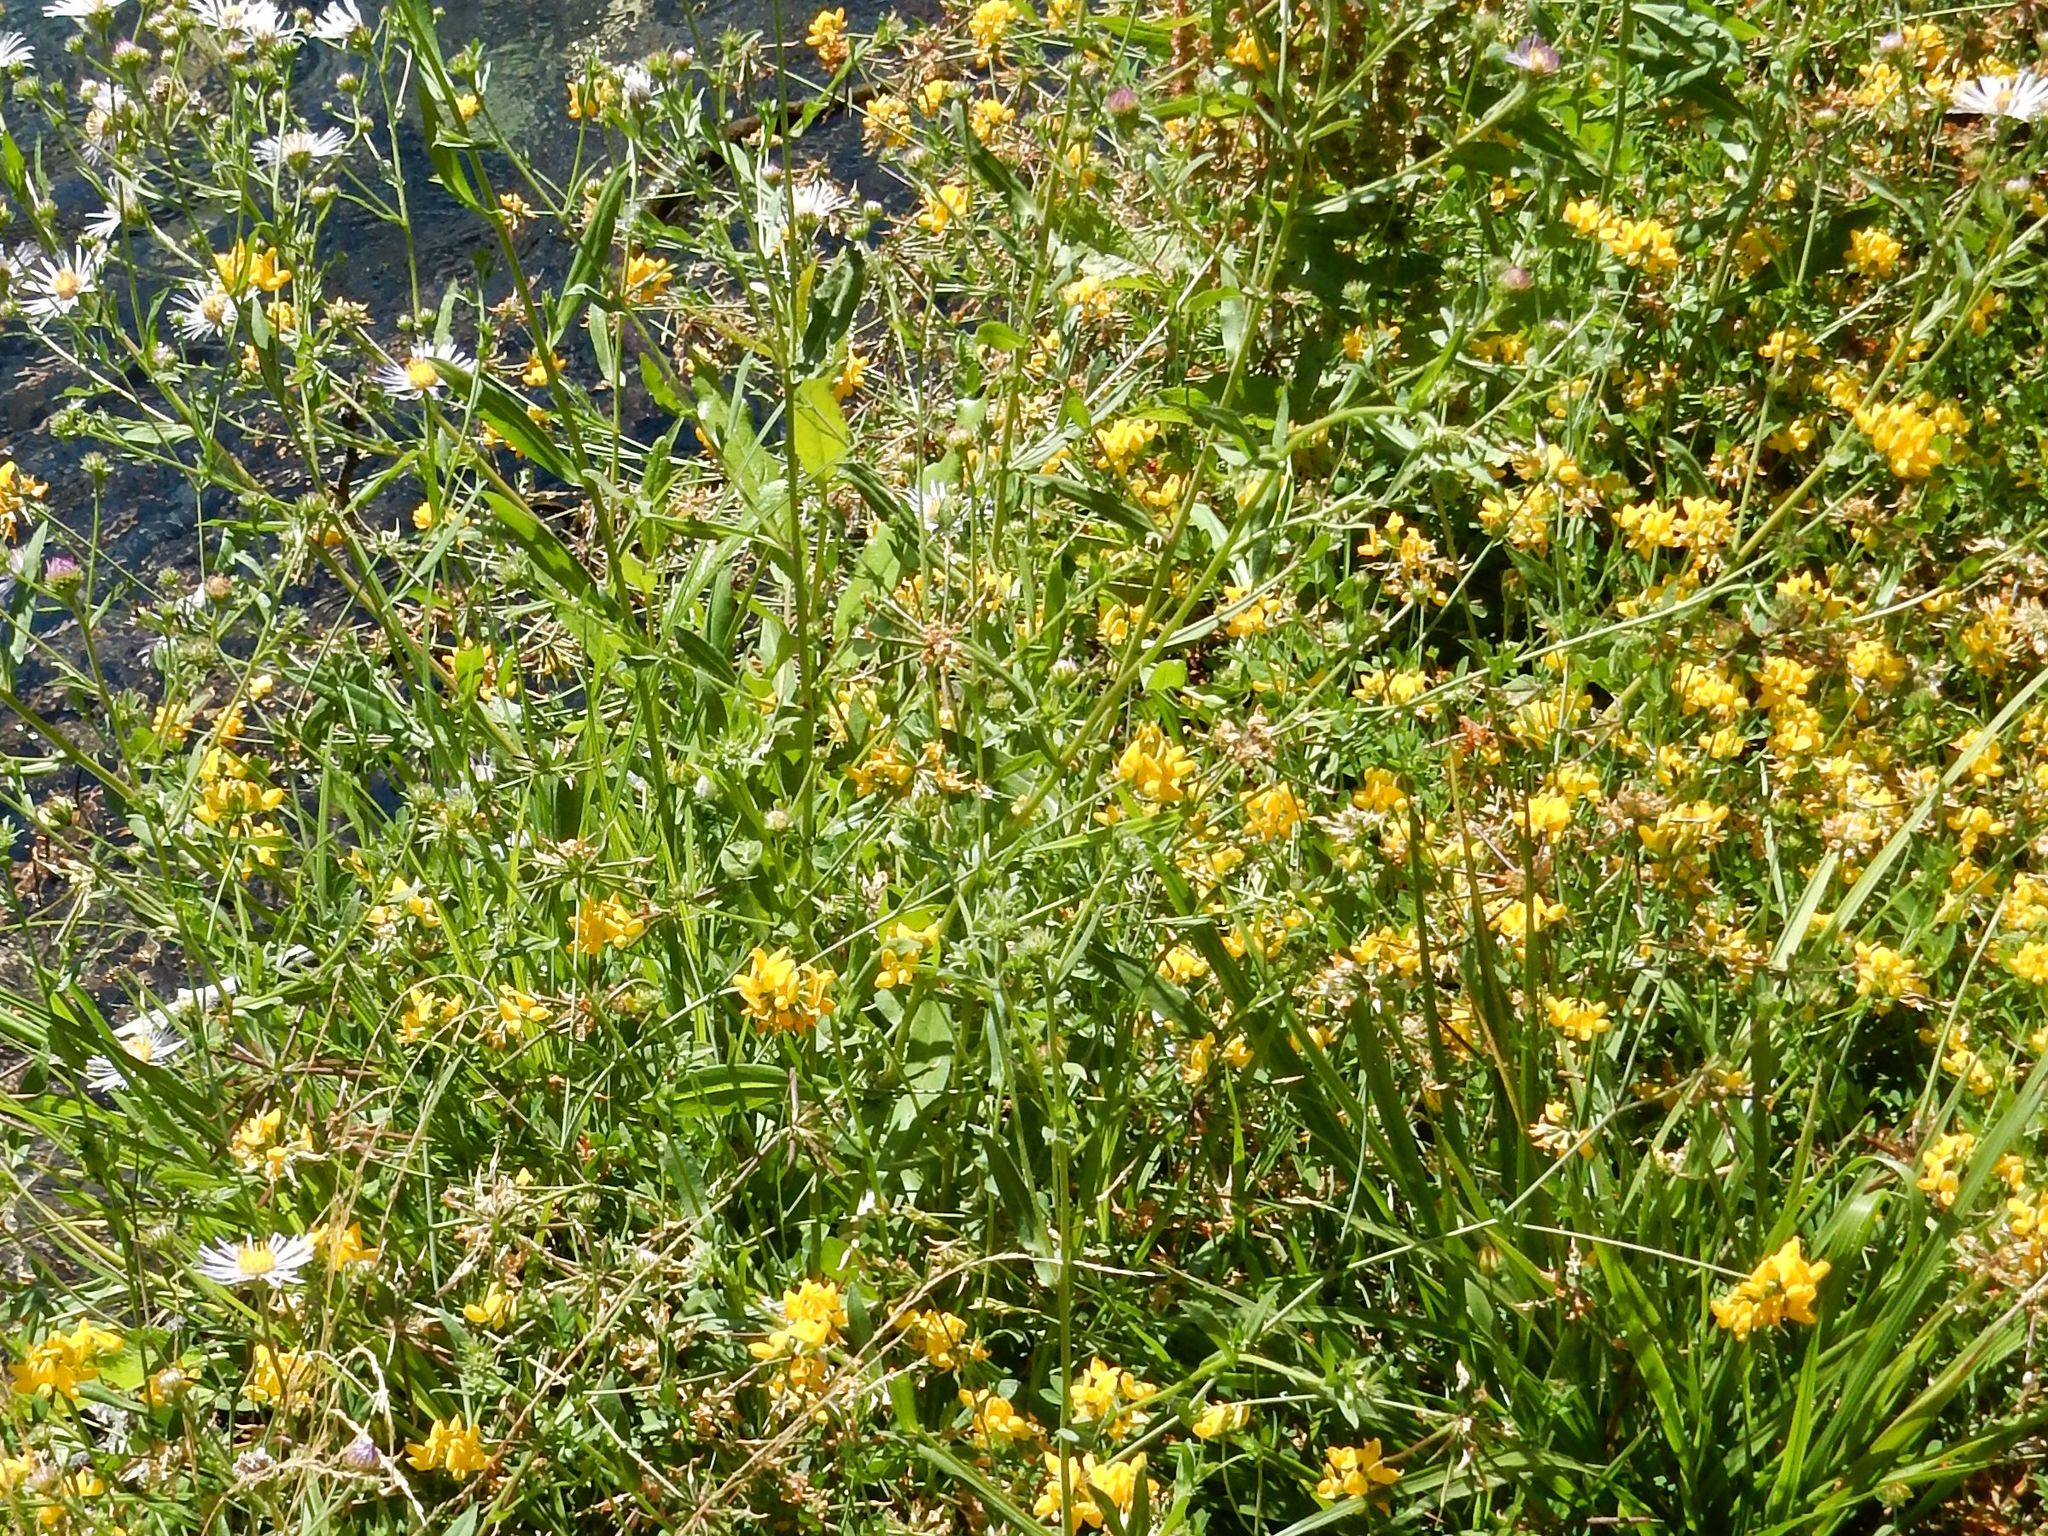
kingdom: Plantae
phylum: Tracheophyta
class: Magnoliopsida
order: Fabales
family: Fabaceae
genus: Lotus
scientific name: Lotus
